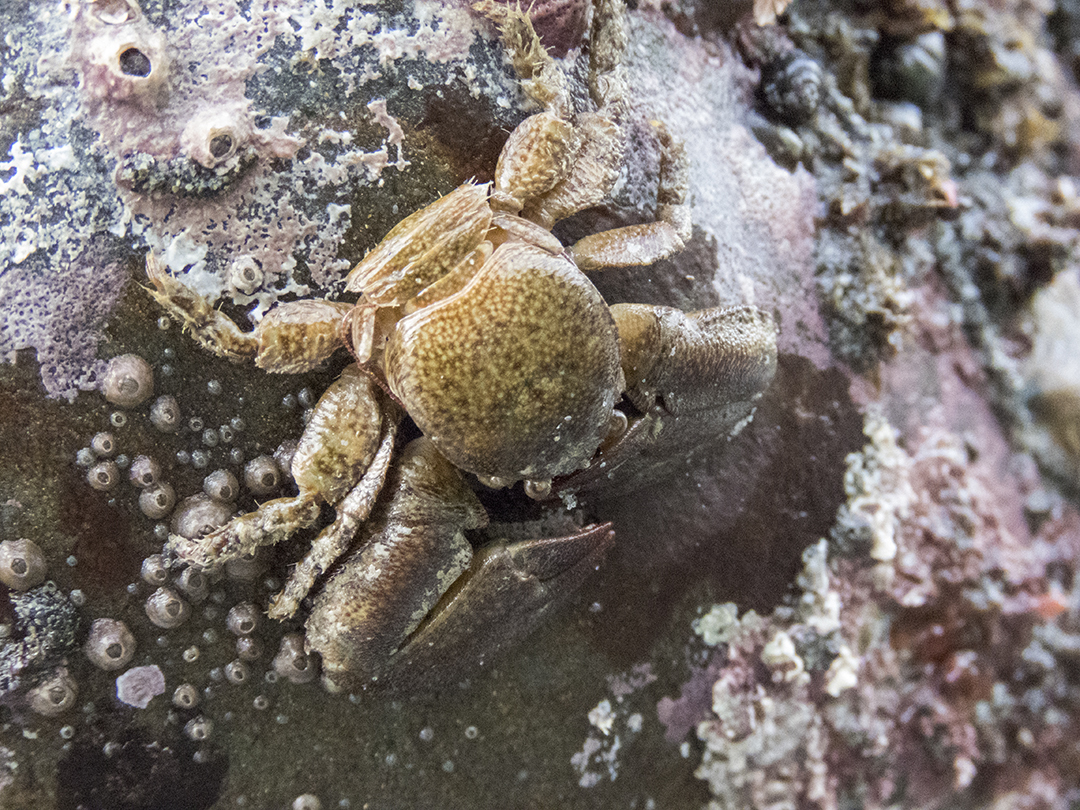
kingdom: Animalia
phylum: Arthropoda
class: Malacostraca
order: Decapoda
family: Porcellanidae
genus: Petrolisthes
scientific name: Petrolisthes elongatus
